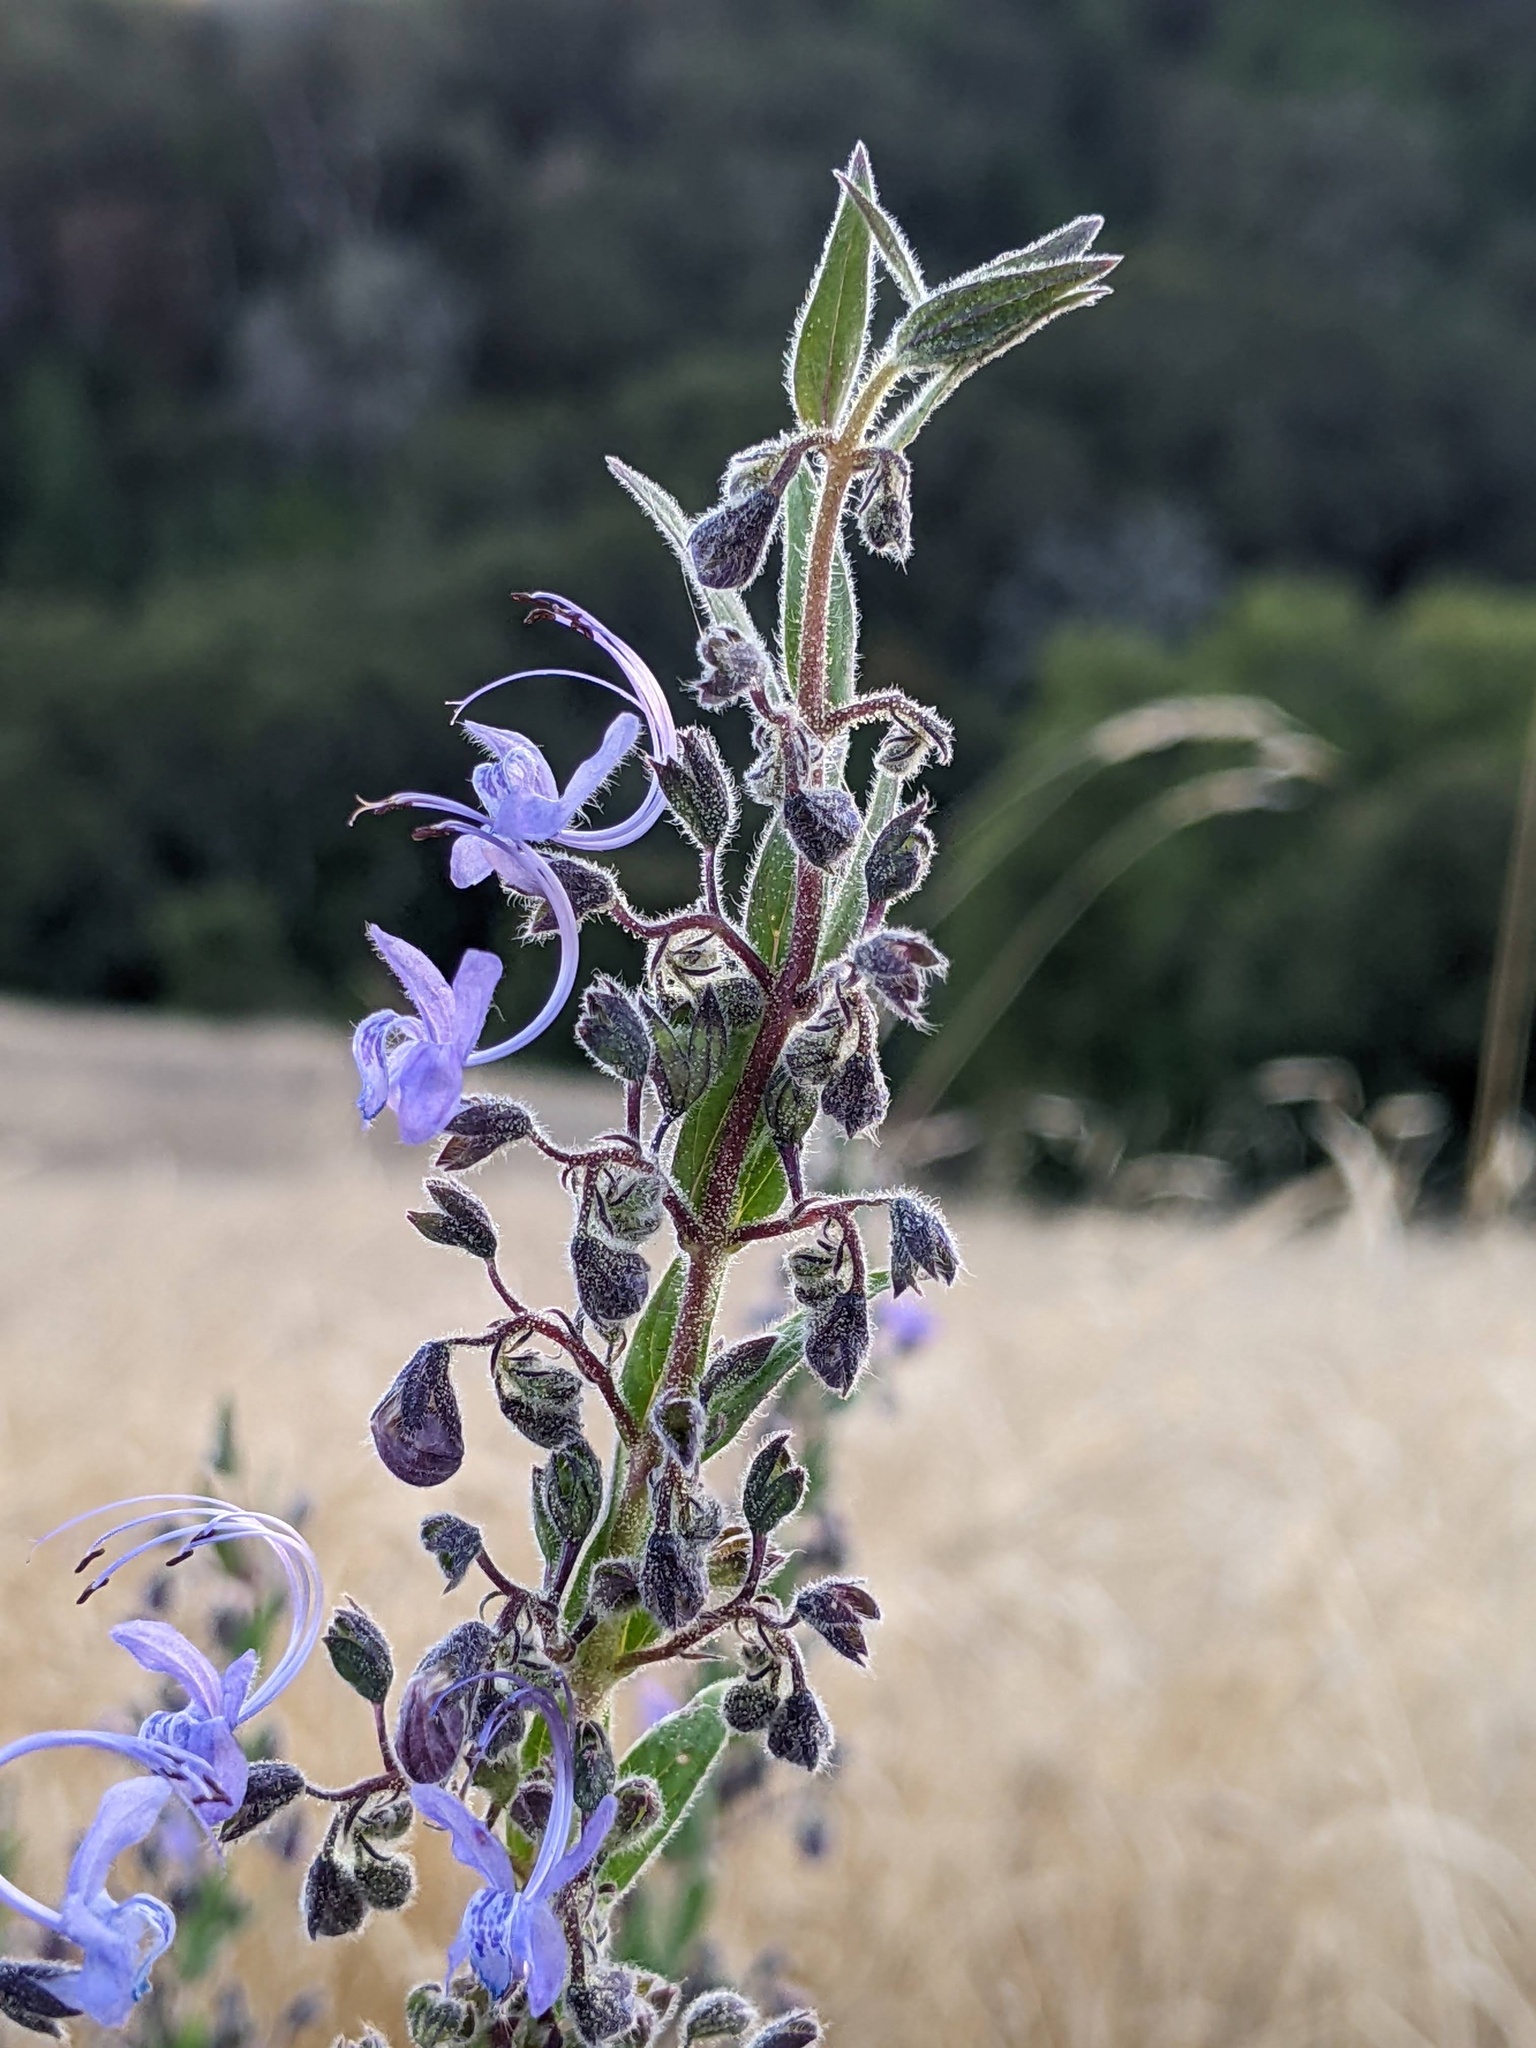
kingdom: Plantae
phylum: Tracheophyta
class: Magnoliopsida
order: Lamiales
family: Lamiaceae
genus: Trichostema
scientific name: Trichostema lanceolatum
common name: Vinegar-weed
